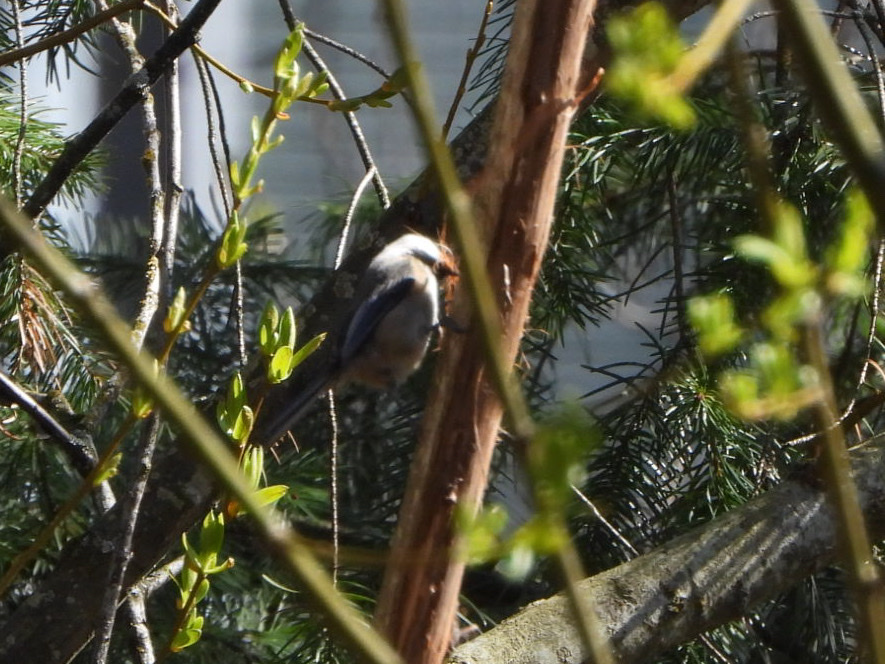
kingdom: Animalia
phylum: Chordata
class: Aves
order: Passeriformes
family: Paridae
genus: Poecile
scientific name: Poecile atricapillus
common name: Black-capped chickadee
